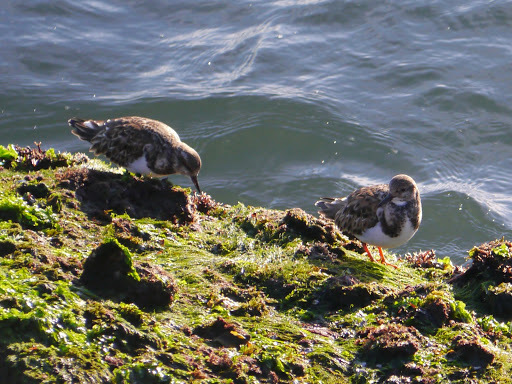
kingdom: Animalia
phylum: Chordata
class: Aves
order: Charadriiformes
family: Scolopacidae
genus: Arenaria
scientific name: Arenaria interpres
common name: Ruddy turnstone
